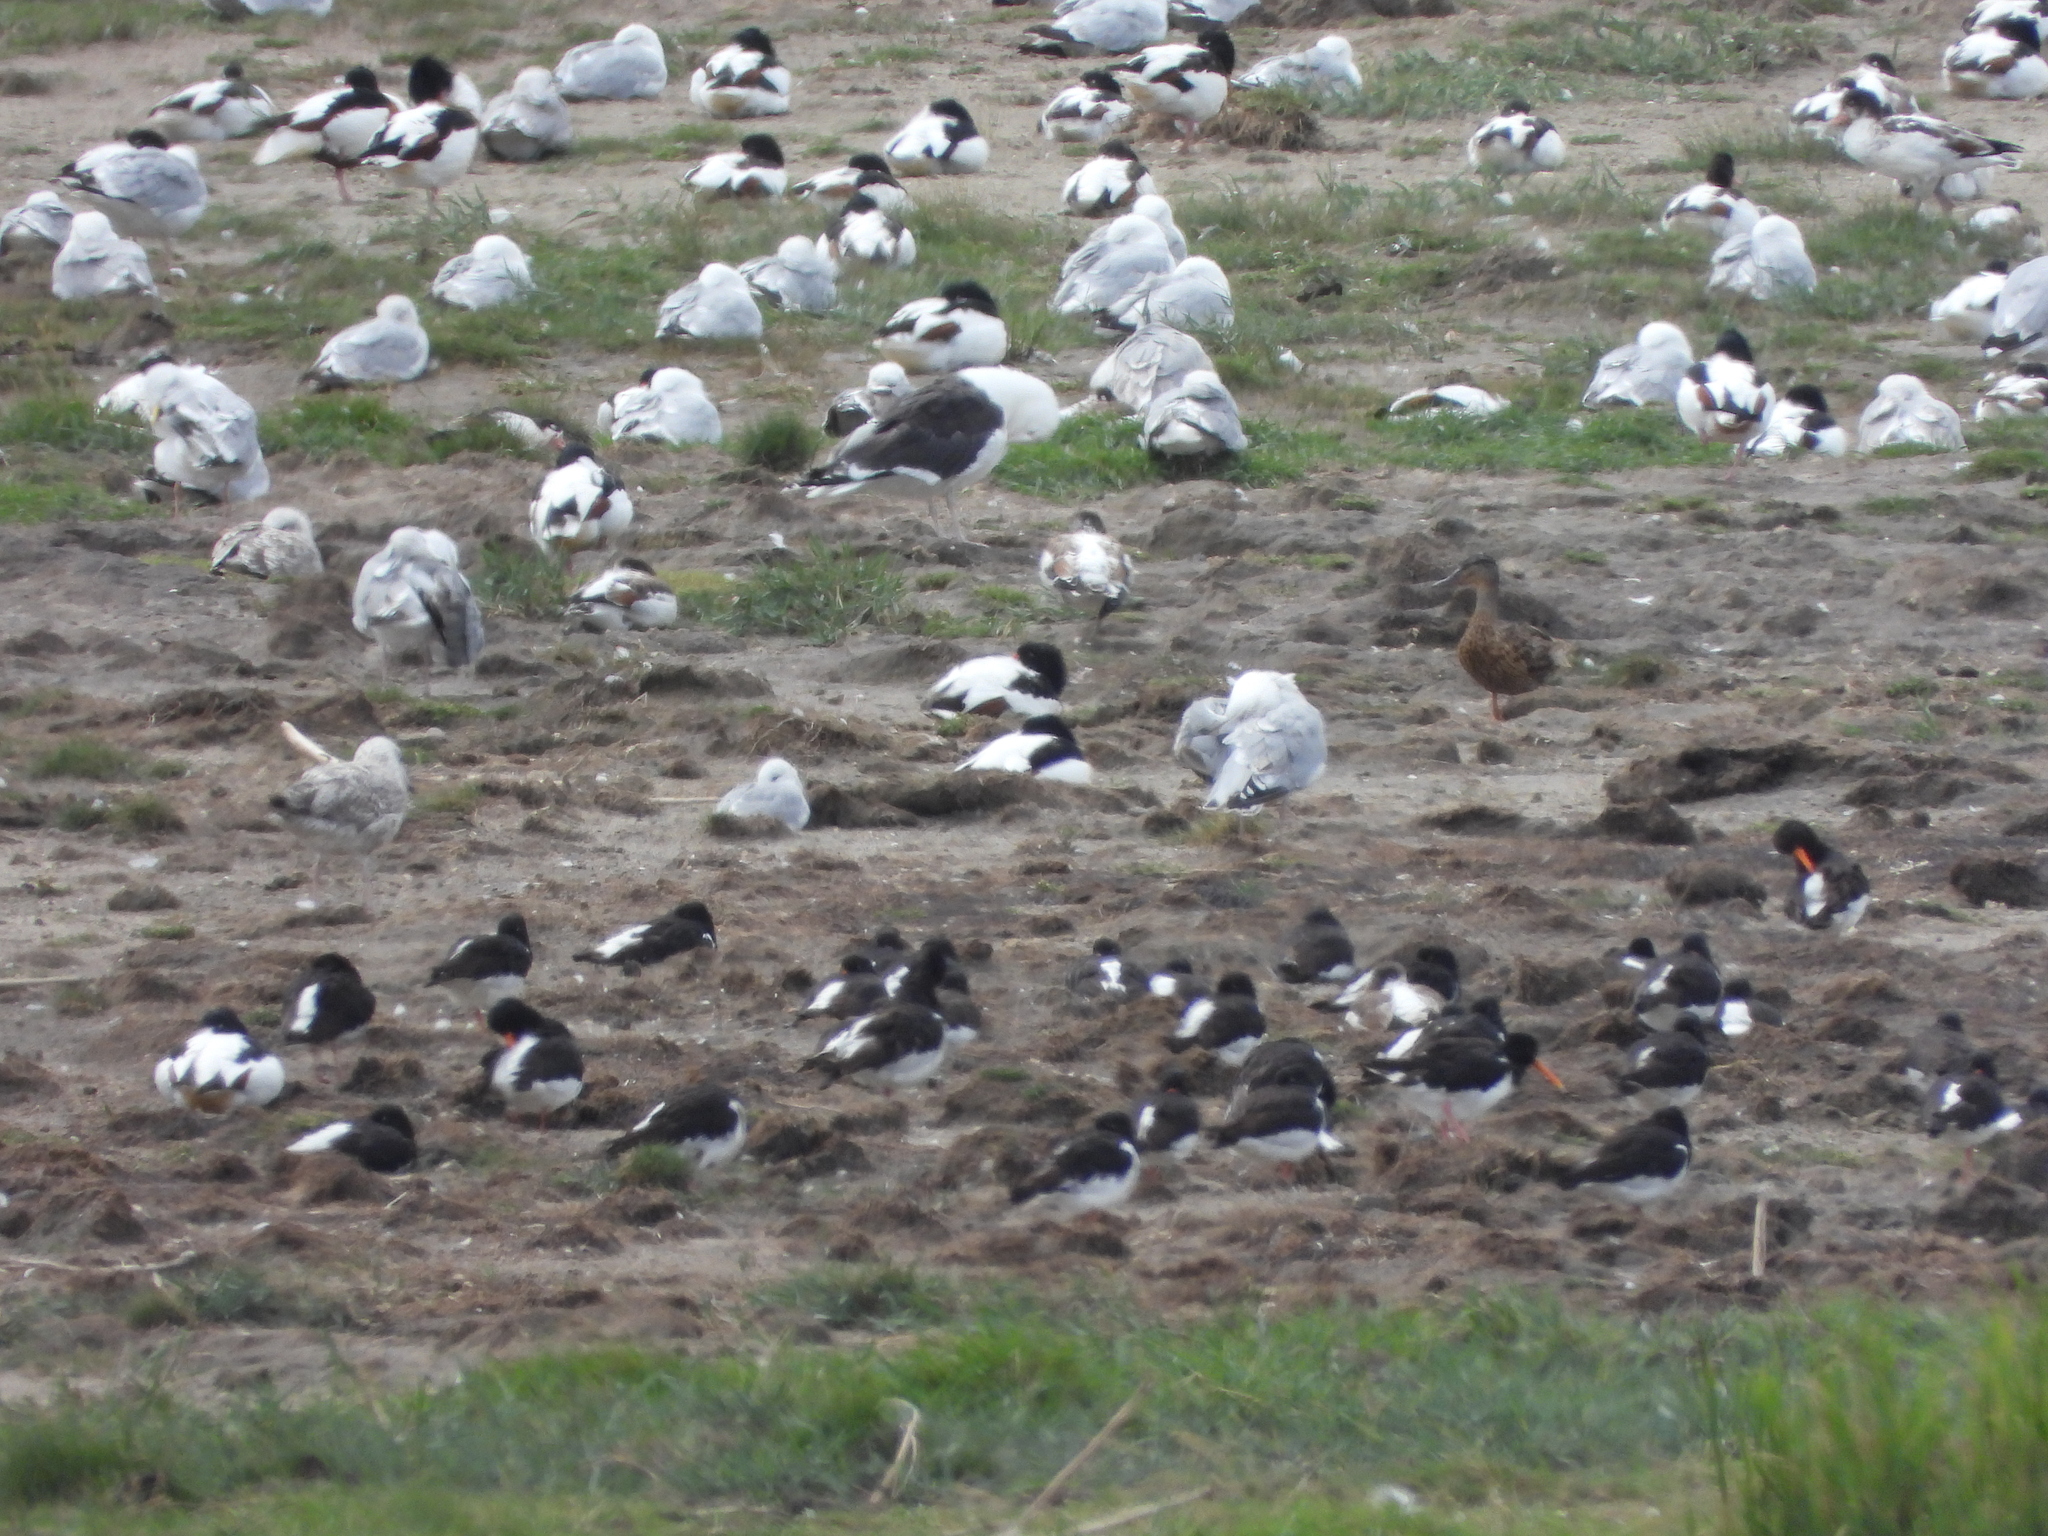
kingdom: Animalia
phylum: Chordata
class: Aves
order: Charadriiformes
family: Haematopodidae
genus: Haematopus
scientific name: Haematopus ostralegus
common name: Eurasian oystercatcher
